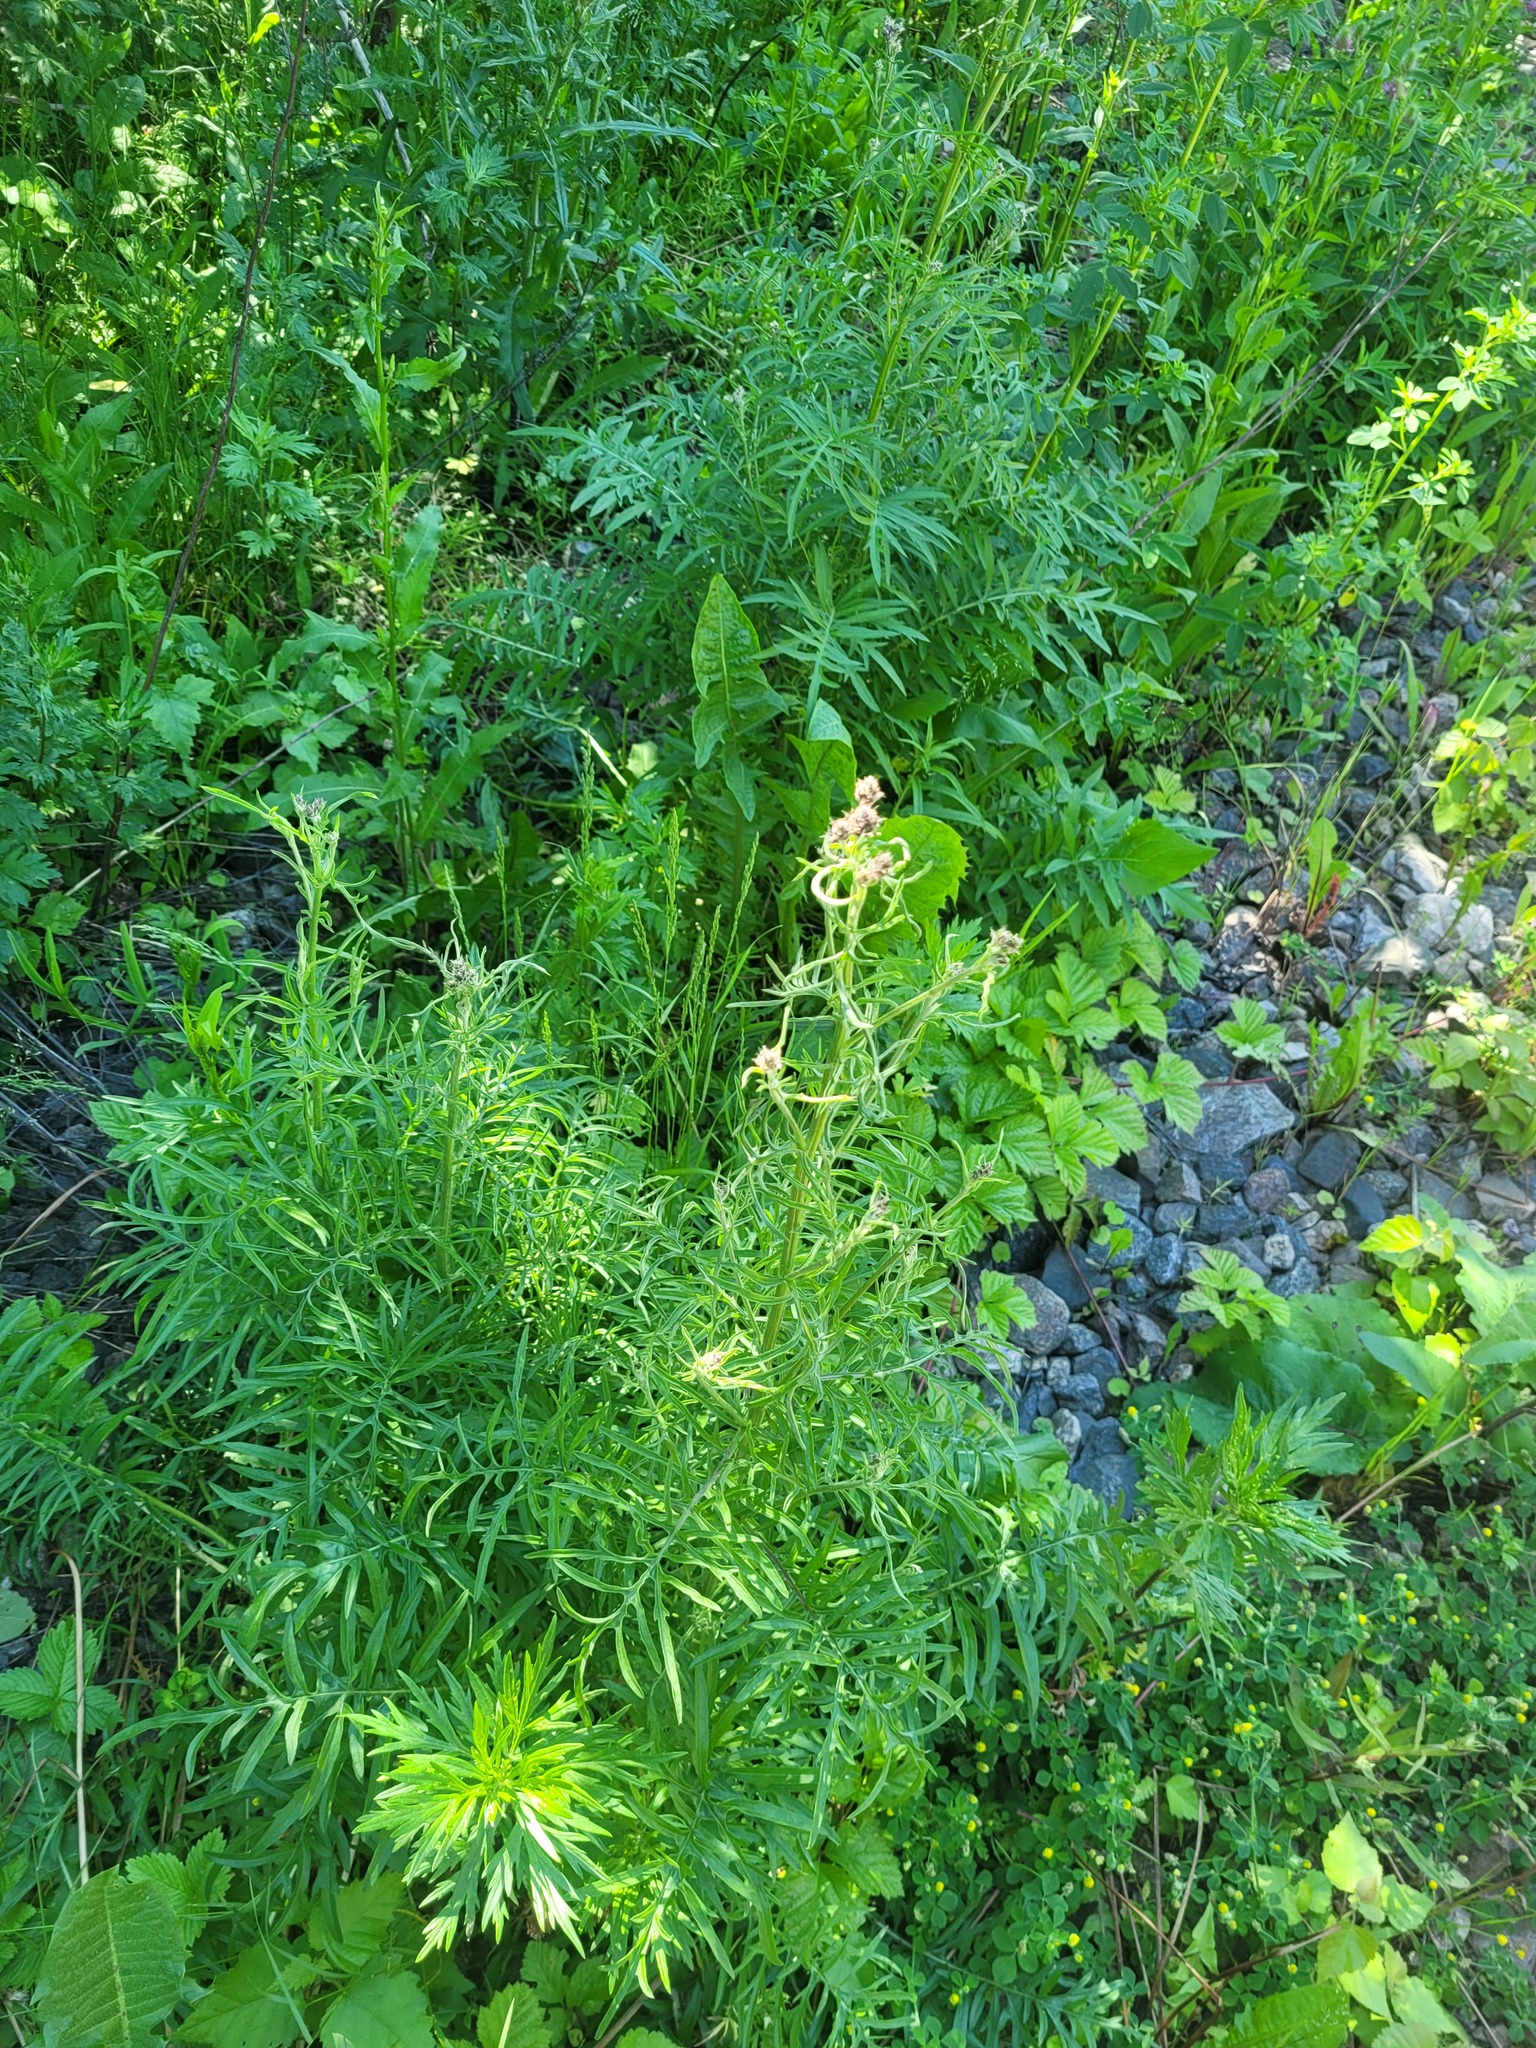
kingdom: Plantae
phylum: Tracheophyta
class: Magnoliopsida
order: Asterales
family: Asteraceae
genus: Centaurea
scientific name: Centaurea scabiosa
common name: Greater knapweed
